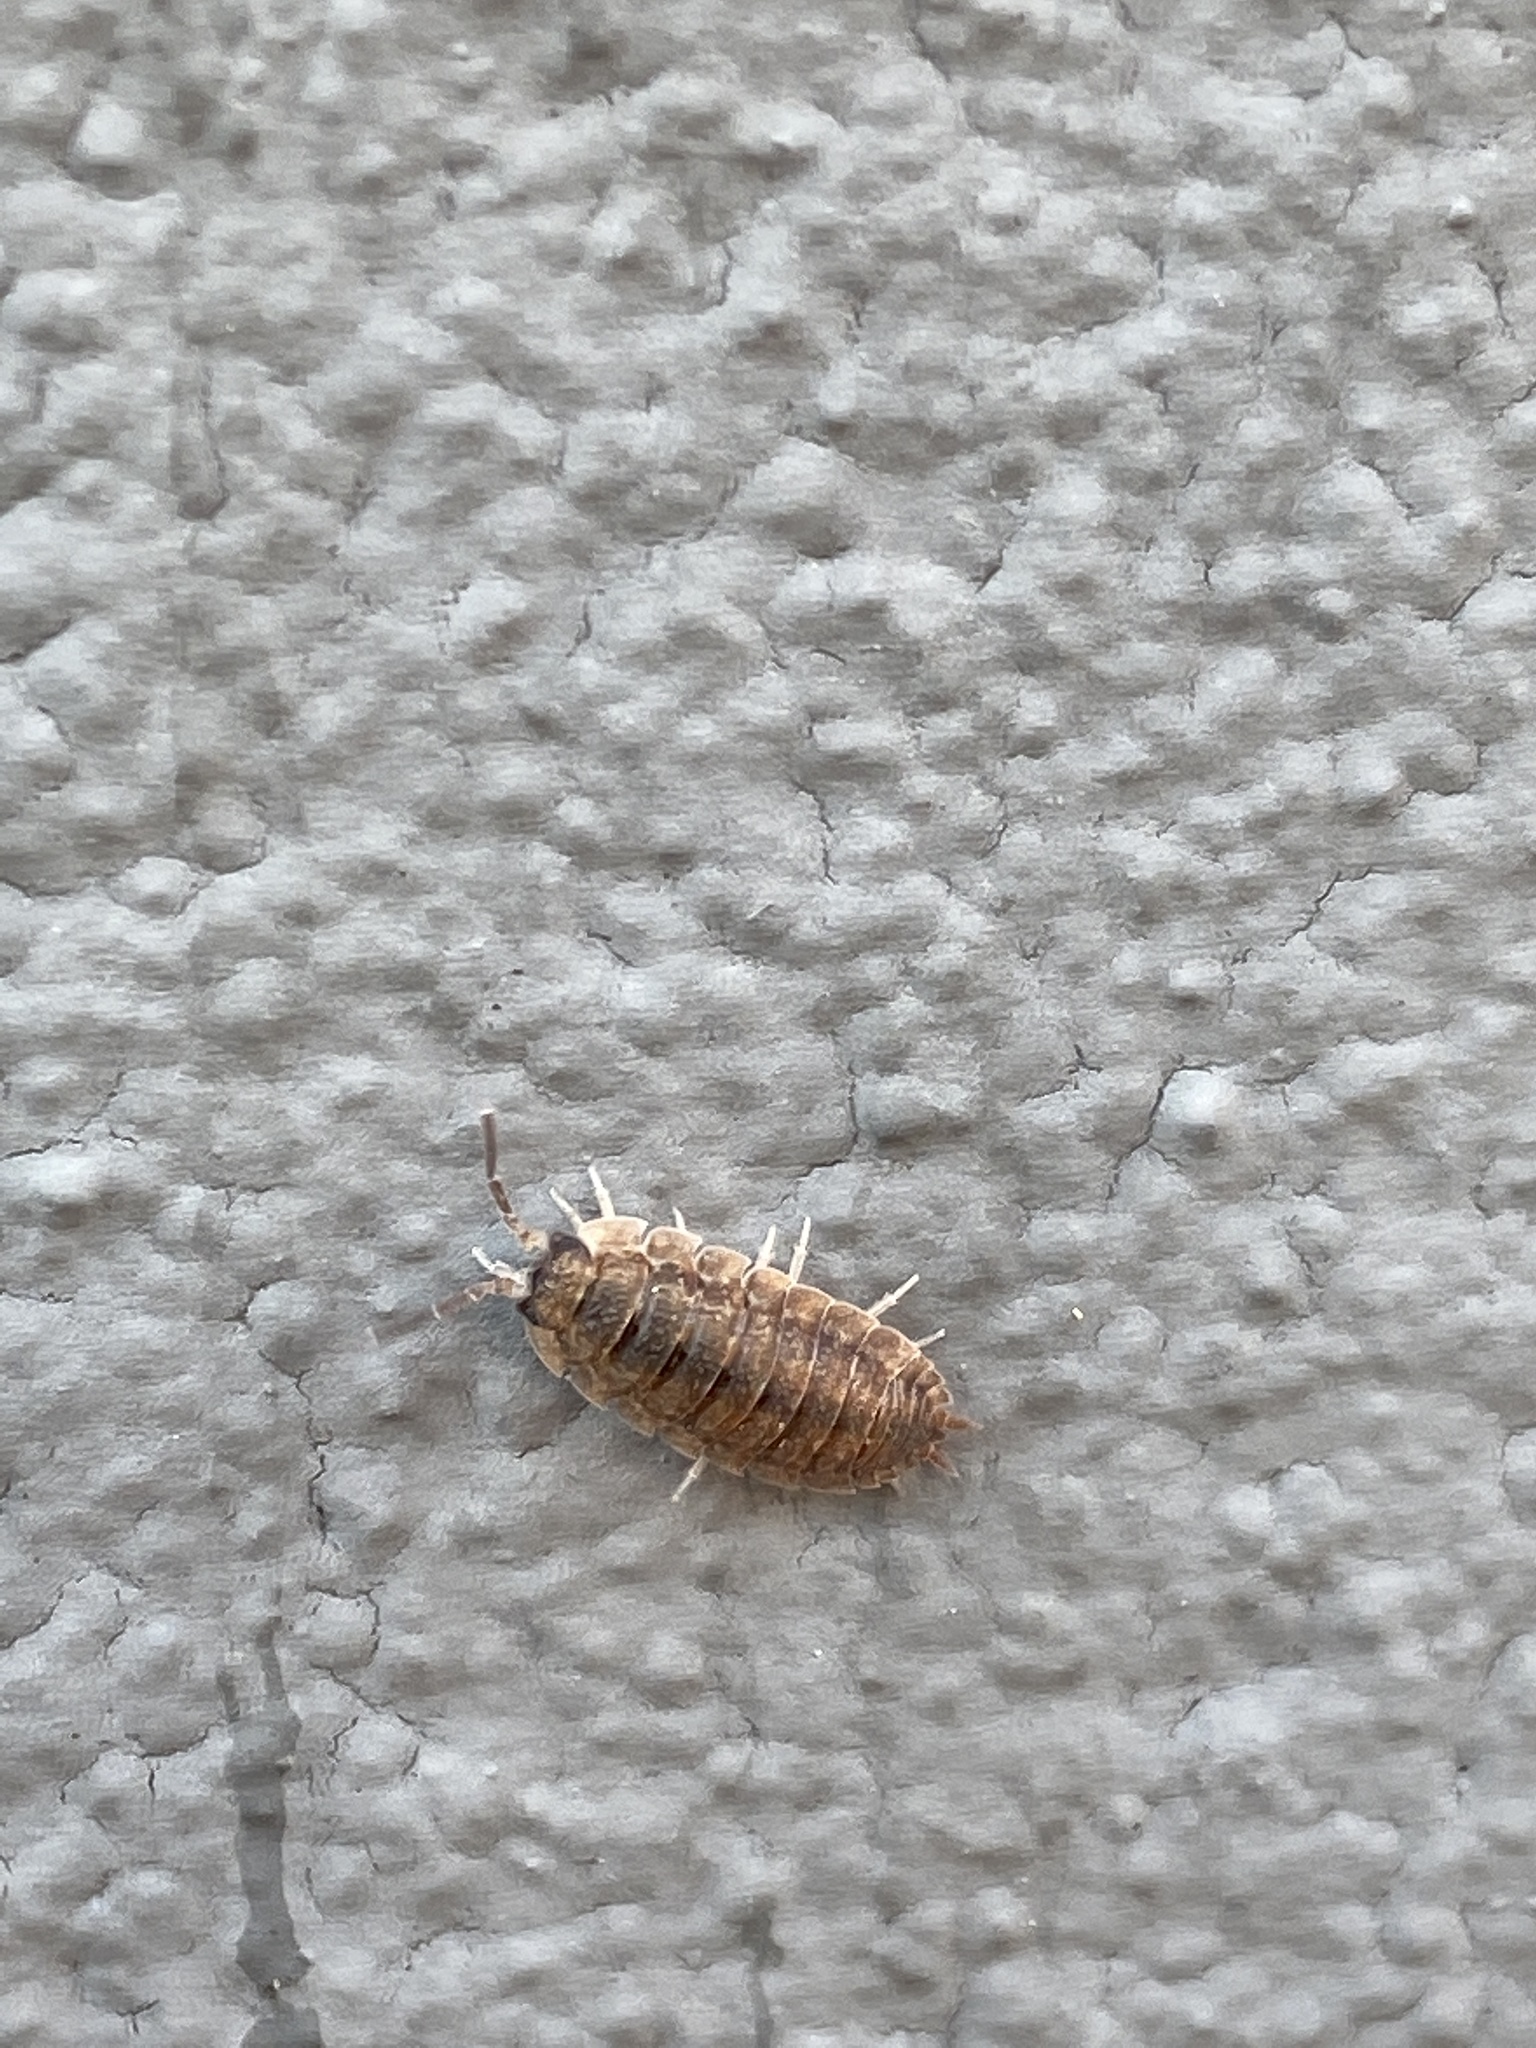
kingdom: Animalia
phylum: Arthropoda
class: Malacostraca
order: Isopoda
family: Porcellionidae
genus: Porcellio
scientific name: Porcellio scaber
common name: Common rough woodlouse
